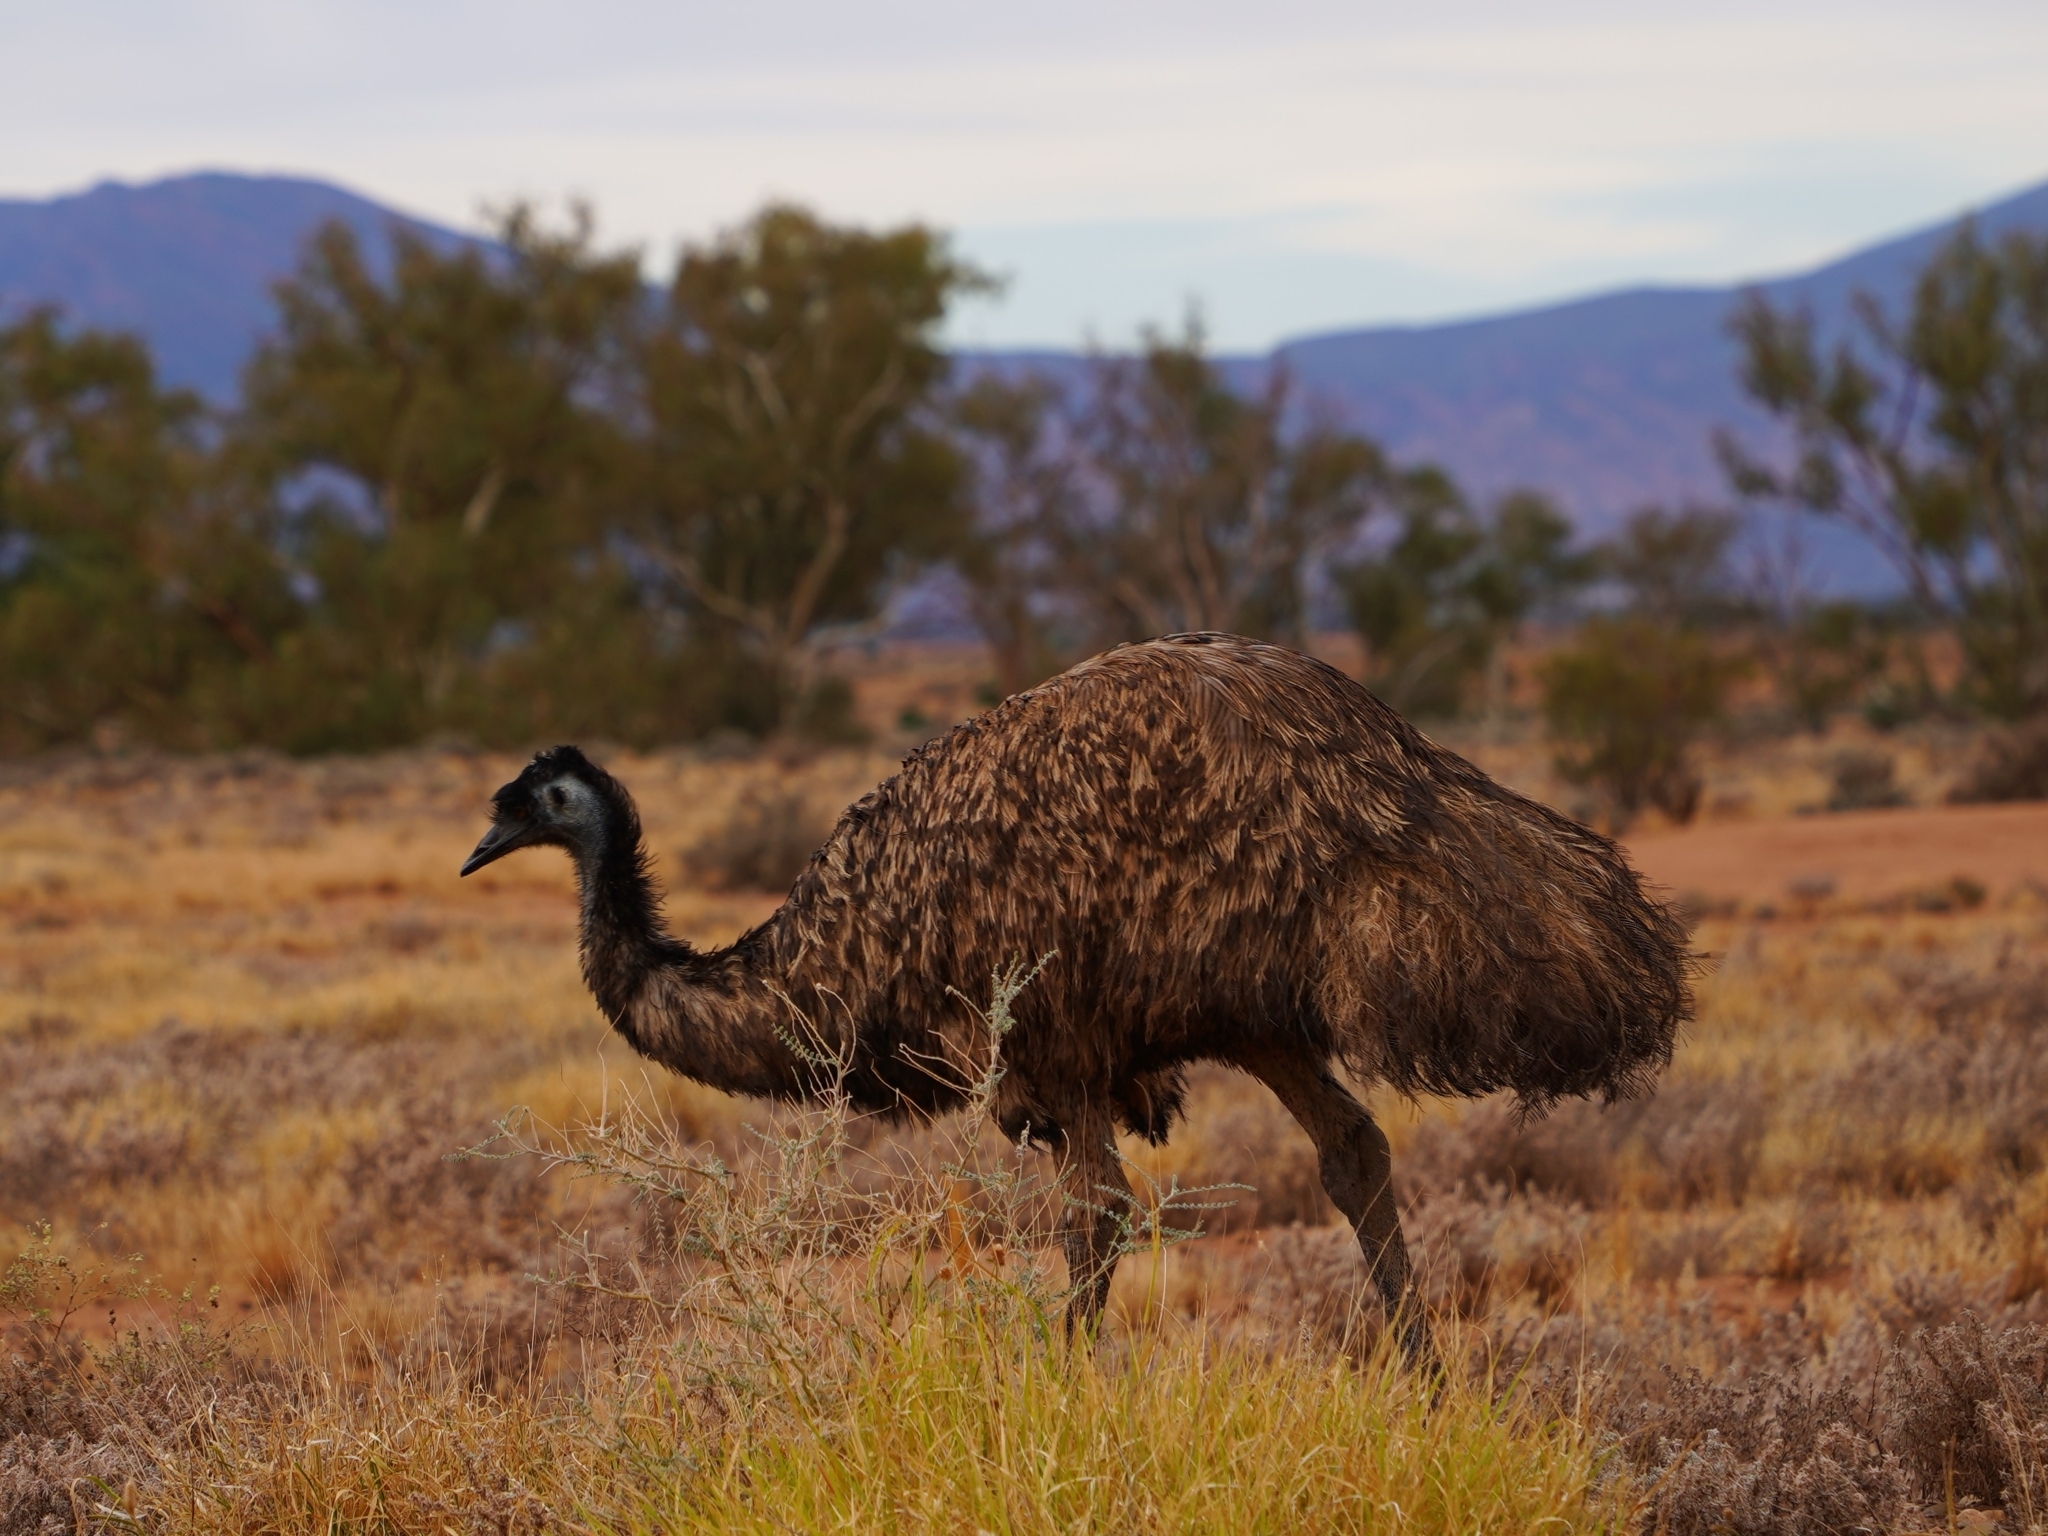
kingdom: Animalia
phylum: Chordata
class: Aves
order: Casuariiformes
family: Dromaiidae
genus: Dromaius
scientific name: Dromaius novaehollandiae
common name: Emu
